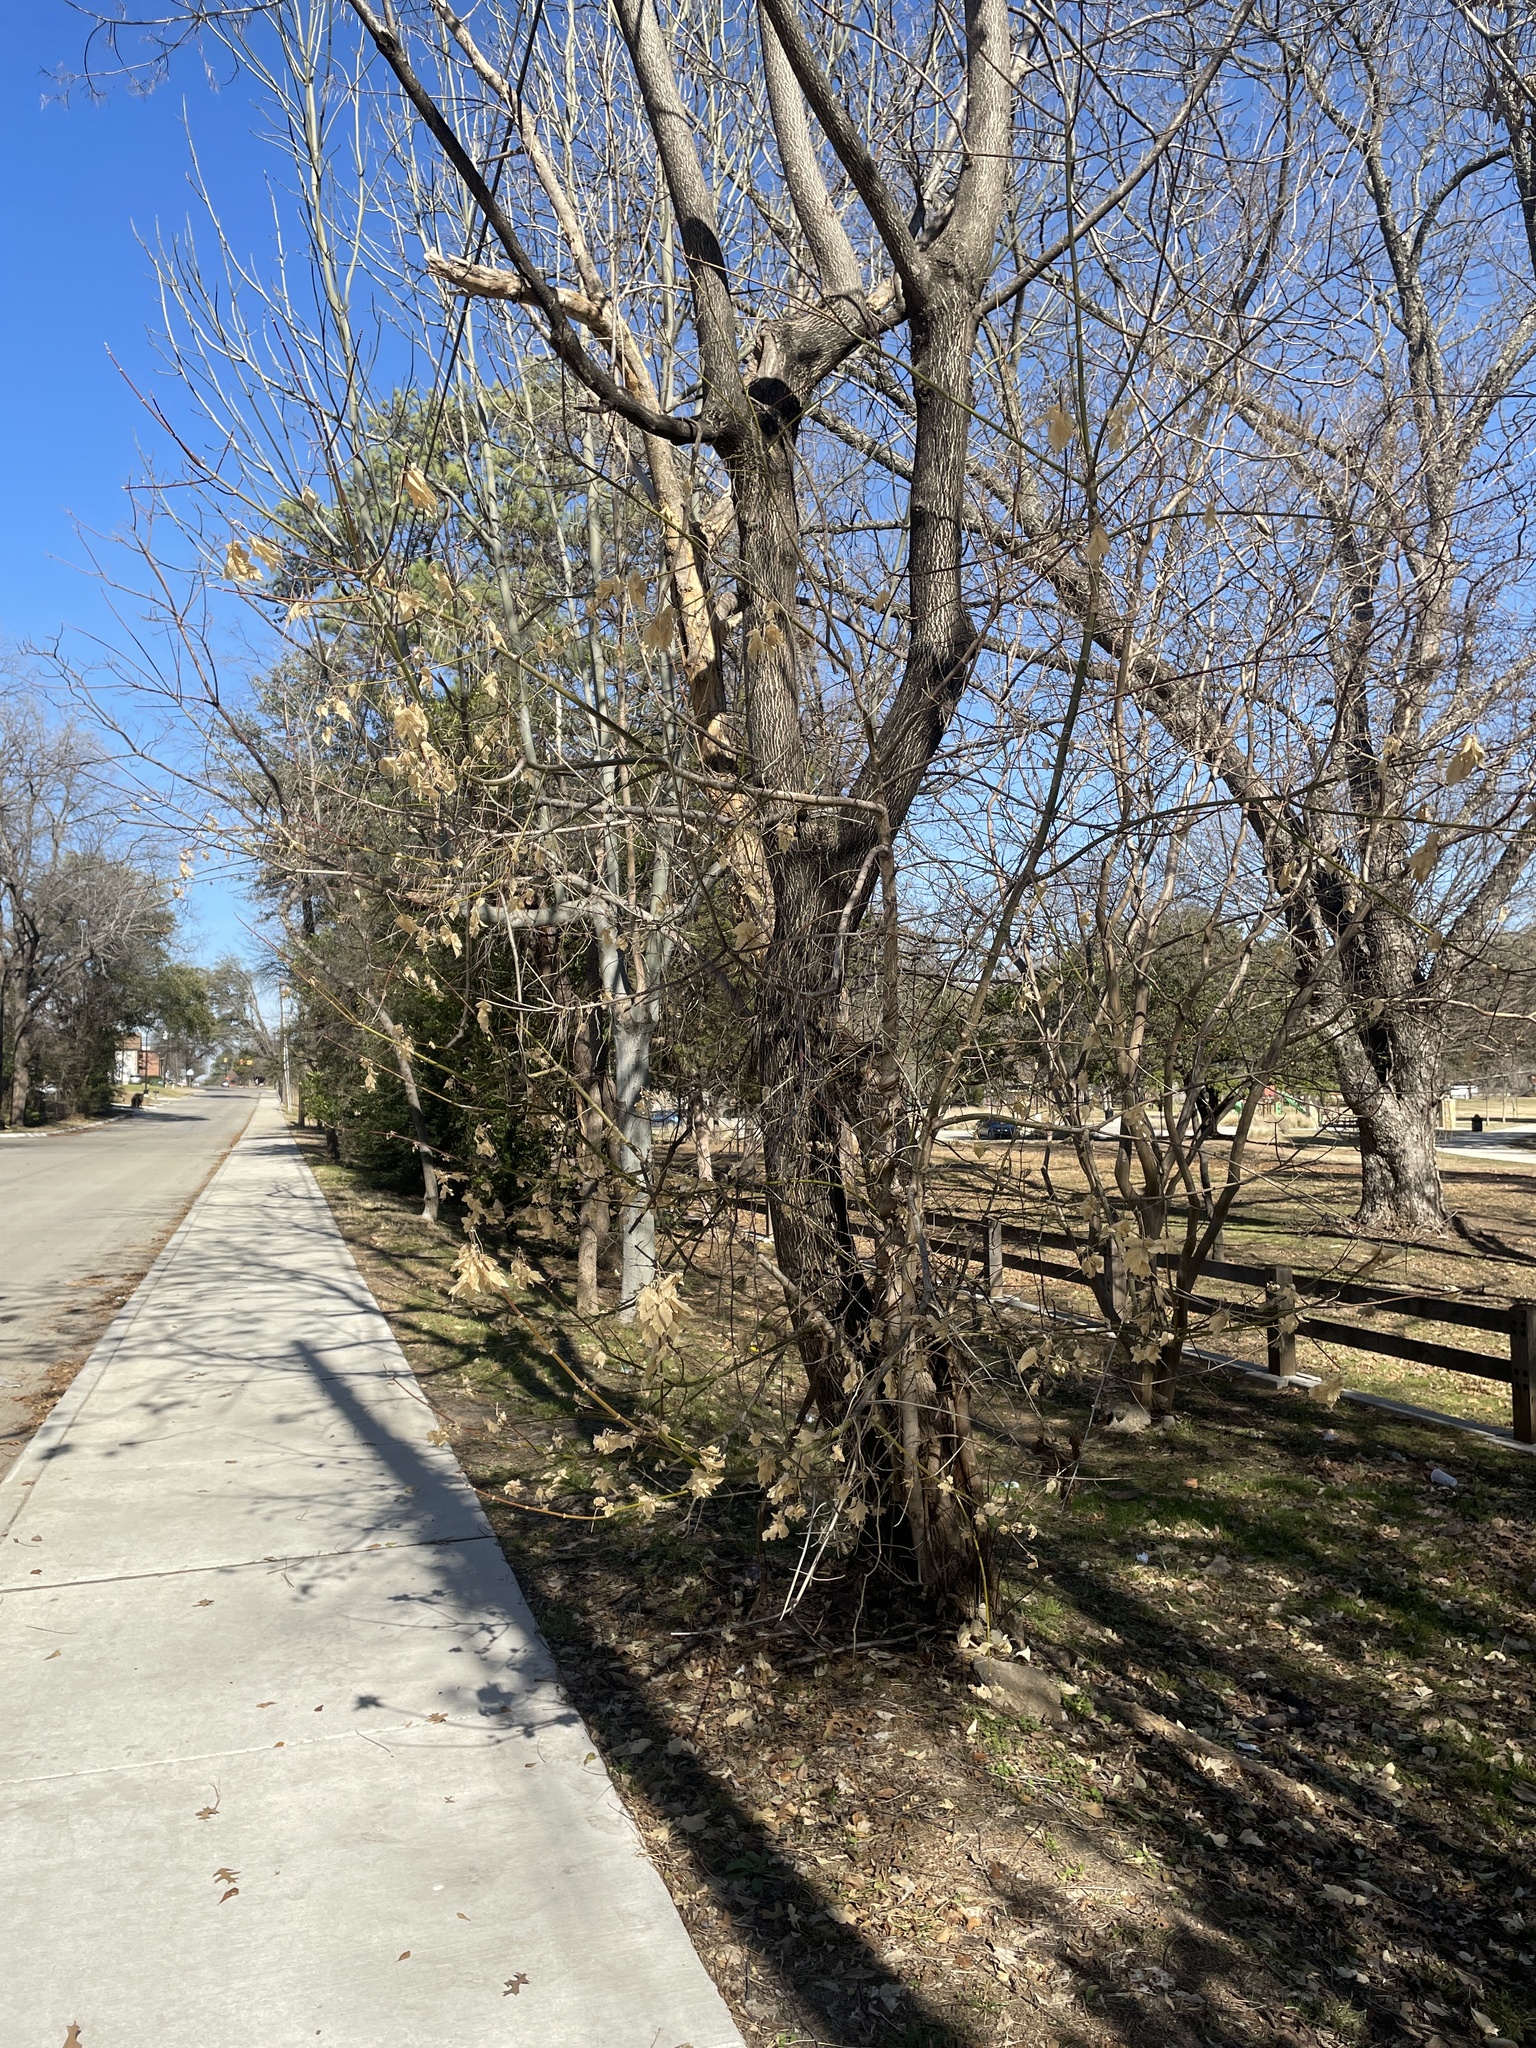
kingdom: Plantae
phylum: Tracheophyta
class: Magnoliopsida
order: Sapindales
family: Sapindaceae
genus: Acer
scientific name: Acer negundo
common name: Ashleaf maple
